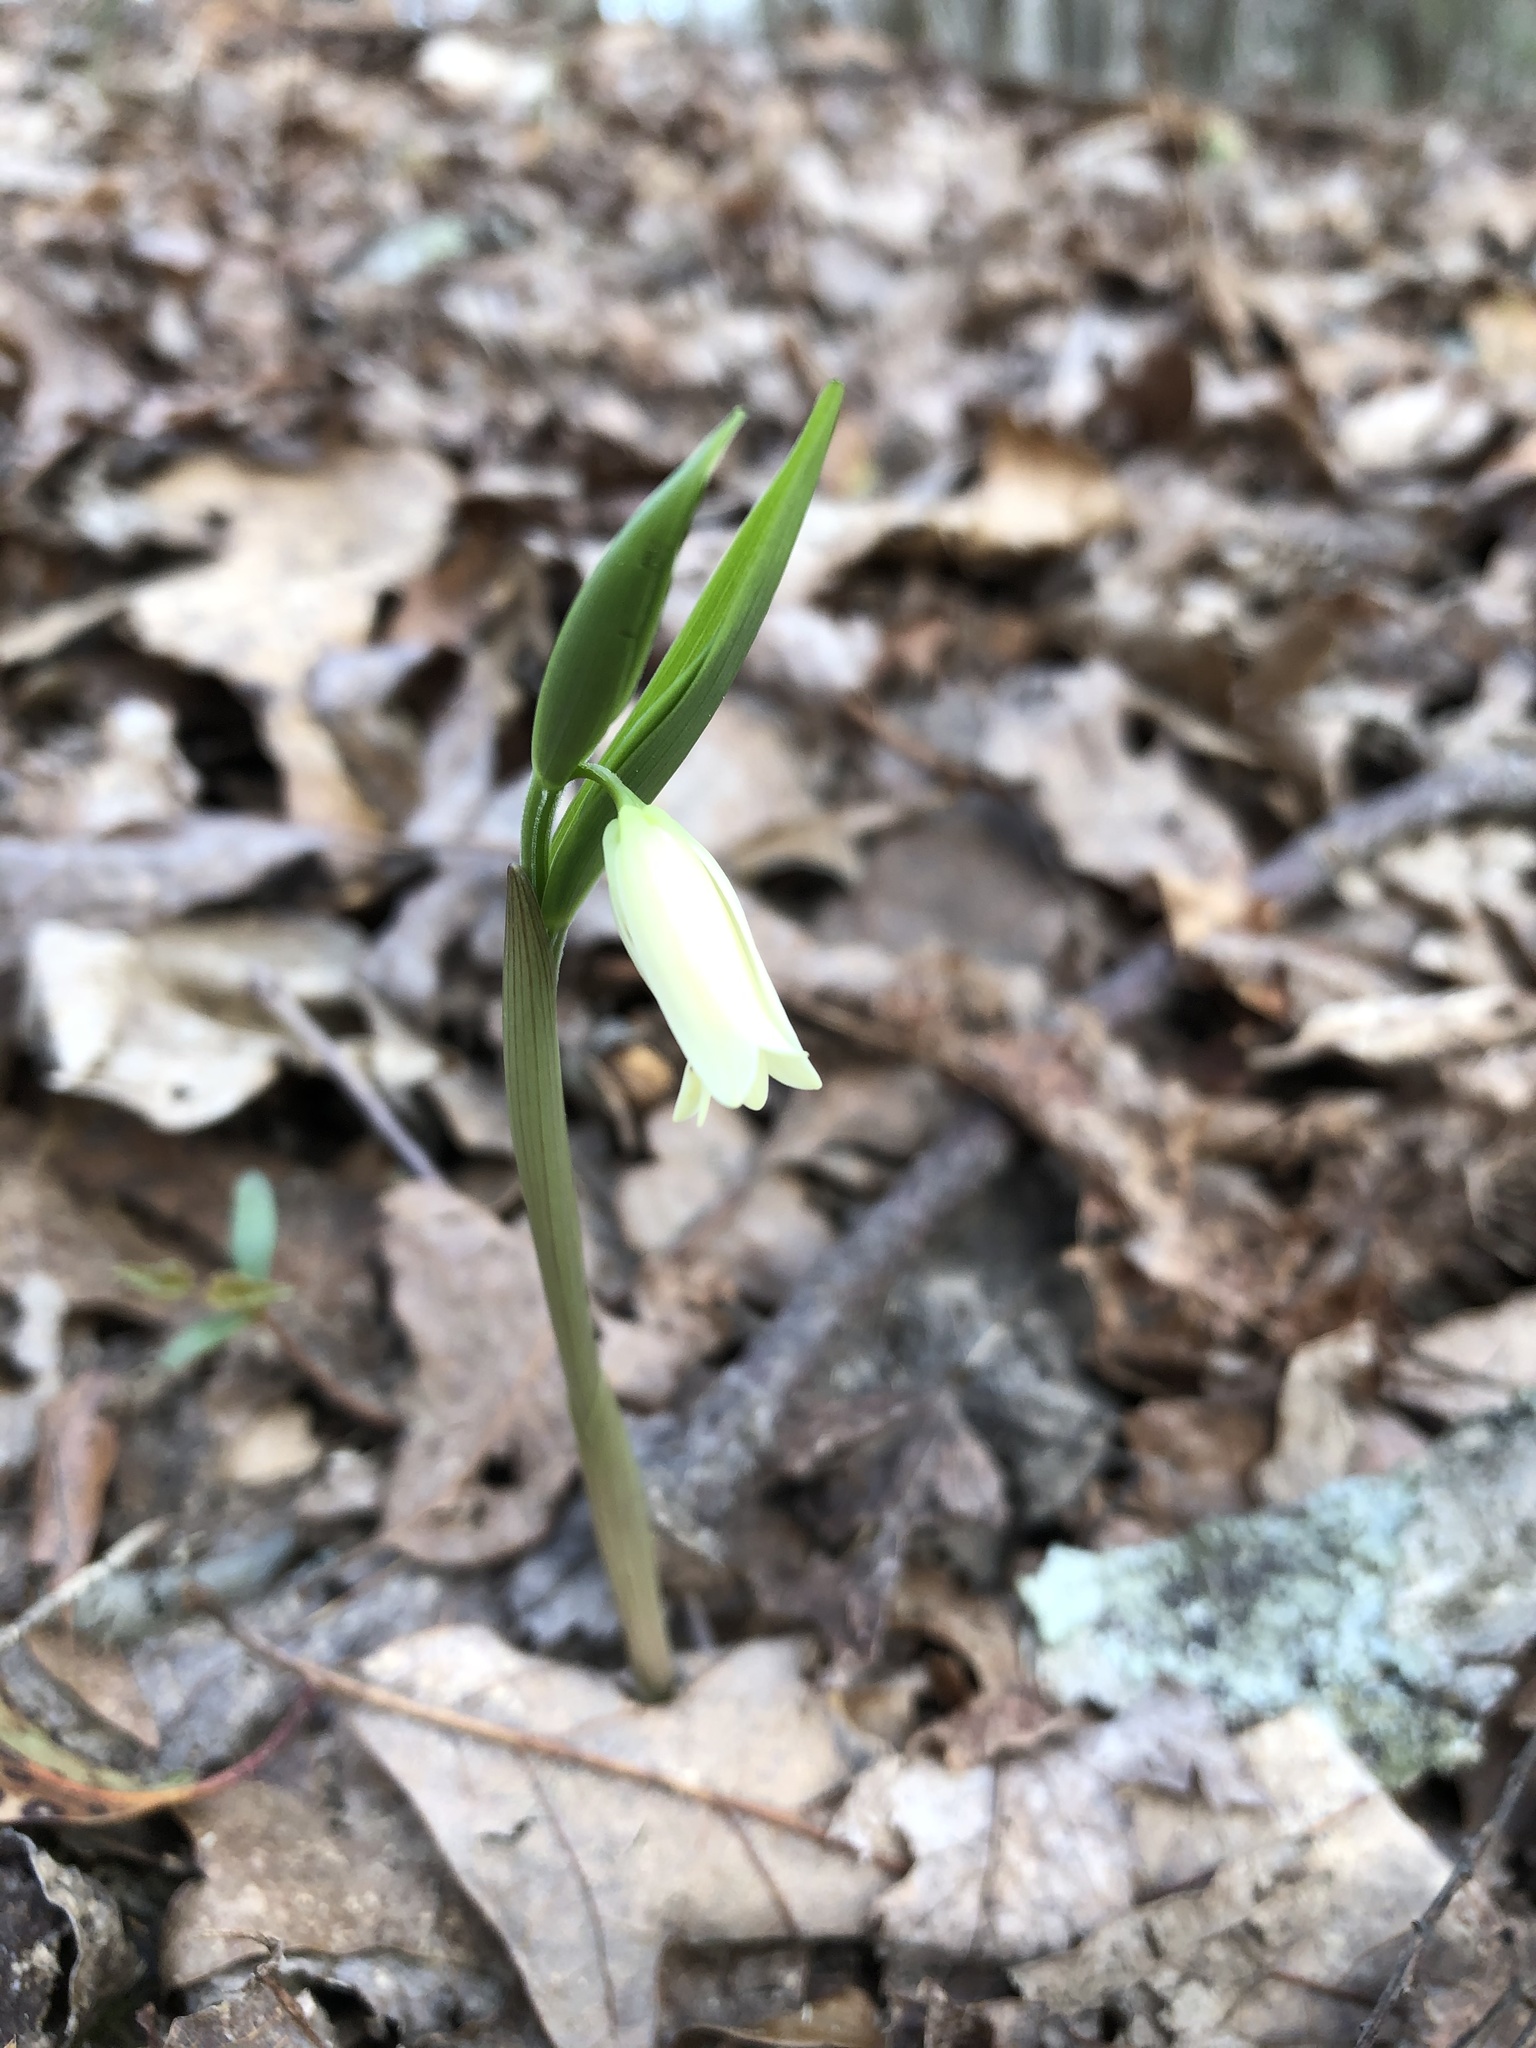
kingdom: Plantae
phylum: Tracheophyta
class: Liliopsida
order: Liliales
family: Colchicaceae
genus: Uvularia
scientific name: Uvularia puberula
